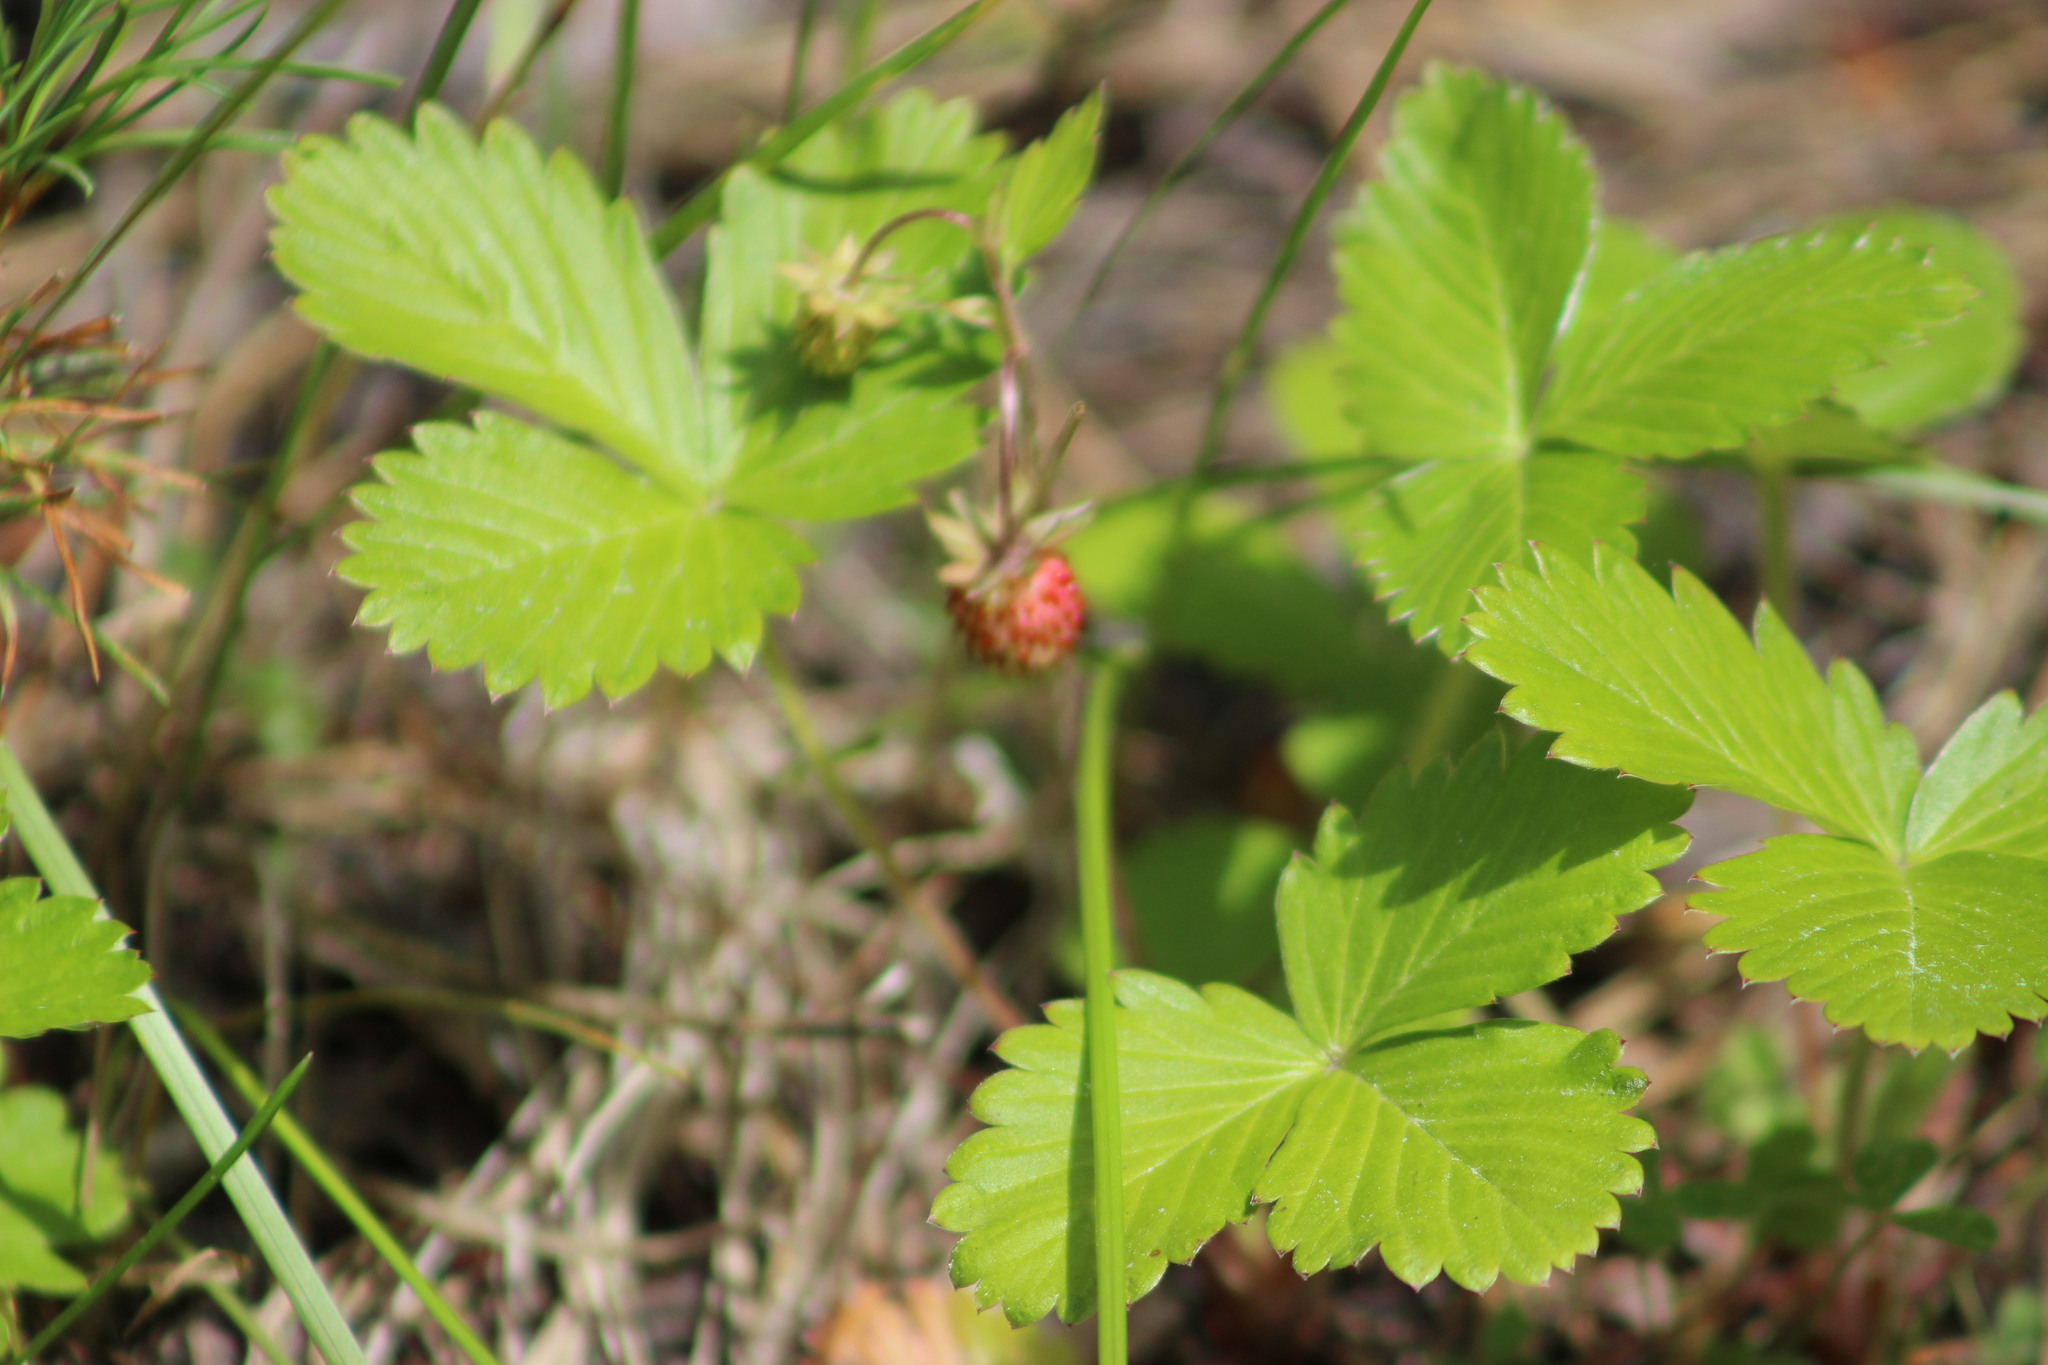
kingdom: Plantae
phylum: Tracheophyta
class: Magnoliopsida
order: Rosales
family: Rosaceae
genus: Fragaria
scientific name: Fragaria vesca
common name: Wild strawberry
